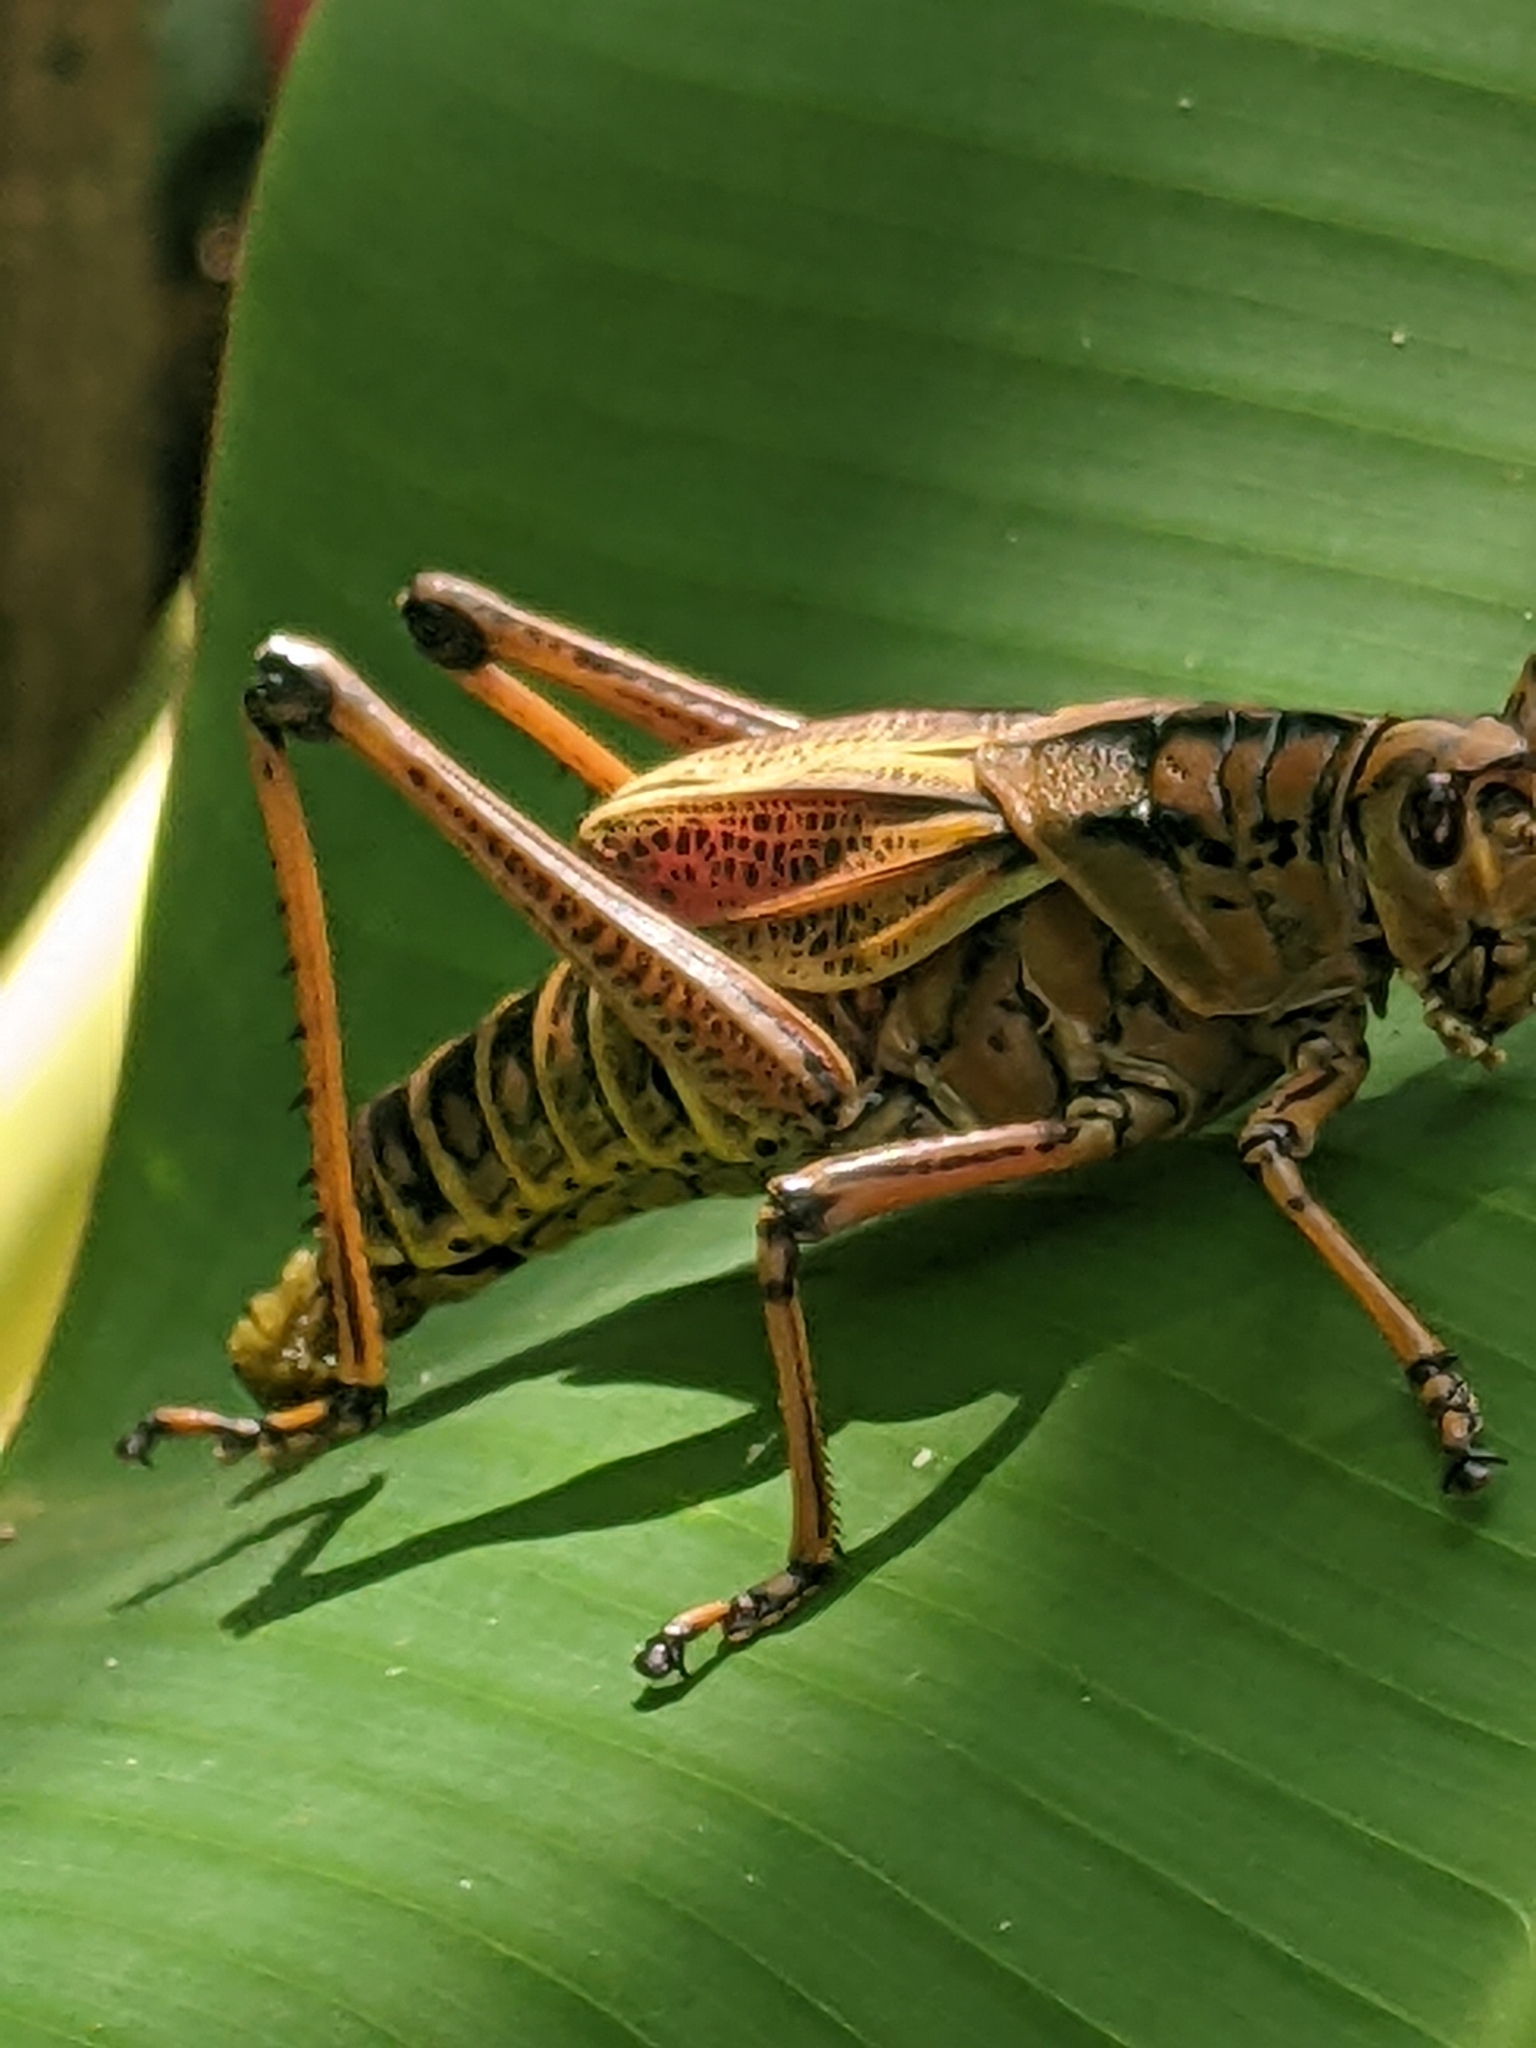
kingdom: Animalia
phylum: Arthropoda
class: Insecta
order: Orthoptera
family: Romaleidae
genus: Romalea
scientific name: Romalea microptera
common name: Eastern lubber grasshopper
